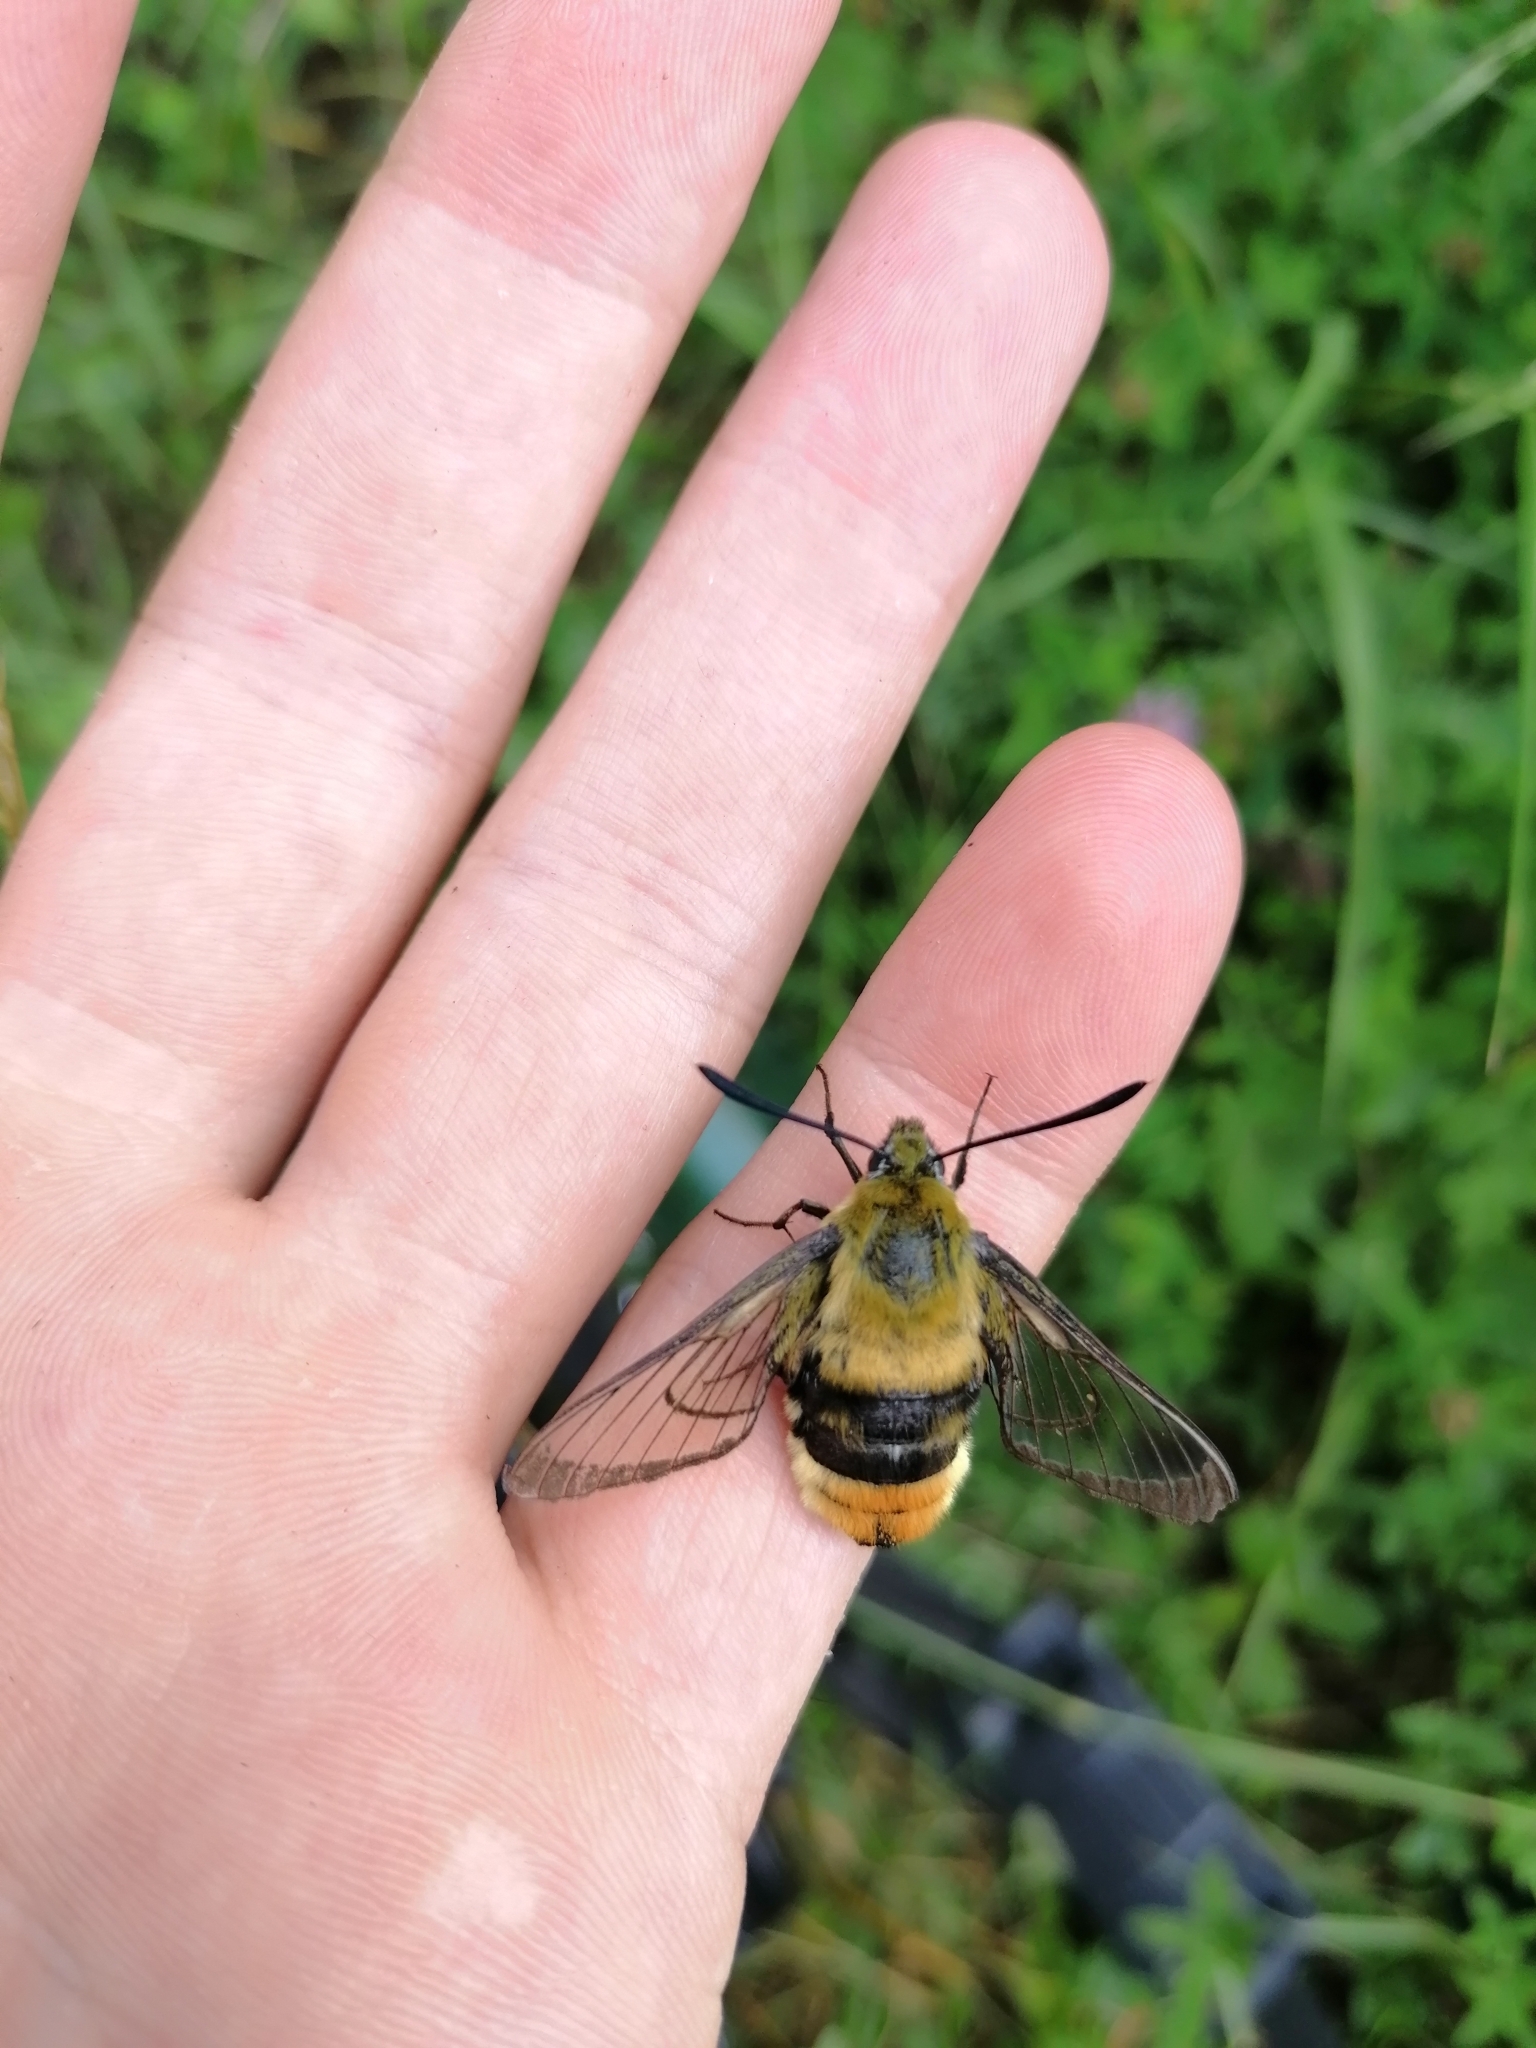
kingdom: Animalia
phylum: Arthropoda
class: Insecta
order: Lepidoptera
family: Sphingidae
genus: Hemaris
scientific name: Hemaris tityus
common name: Narrow-bordered bee hawk-moth
